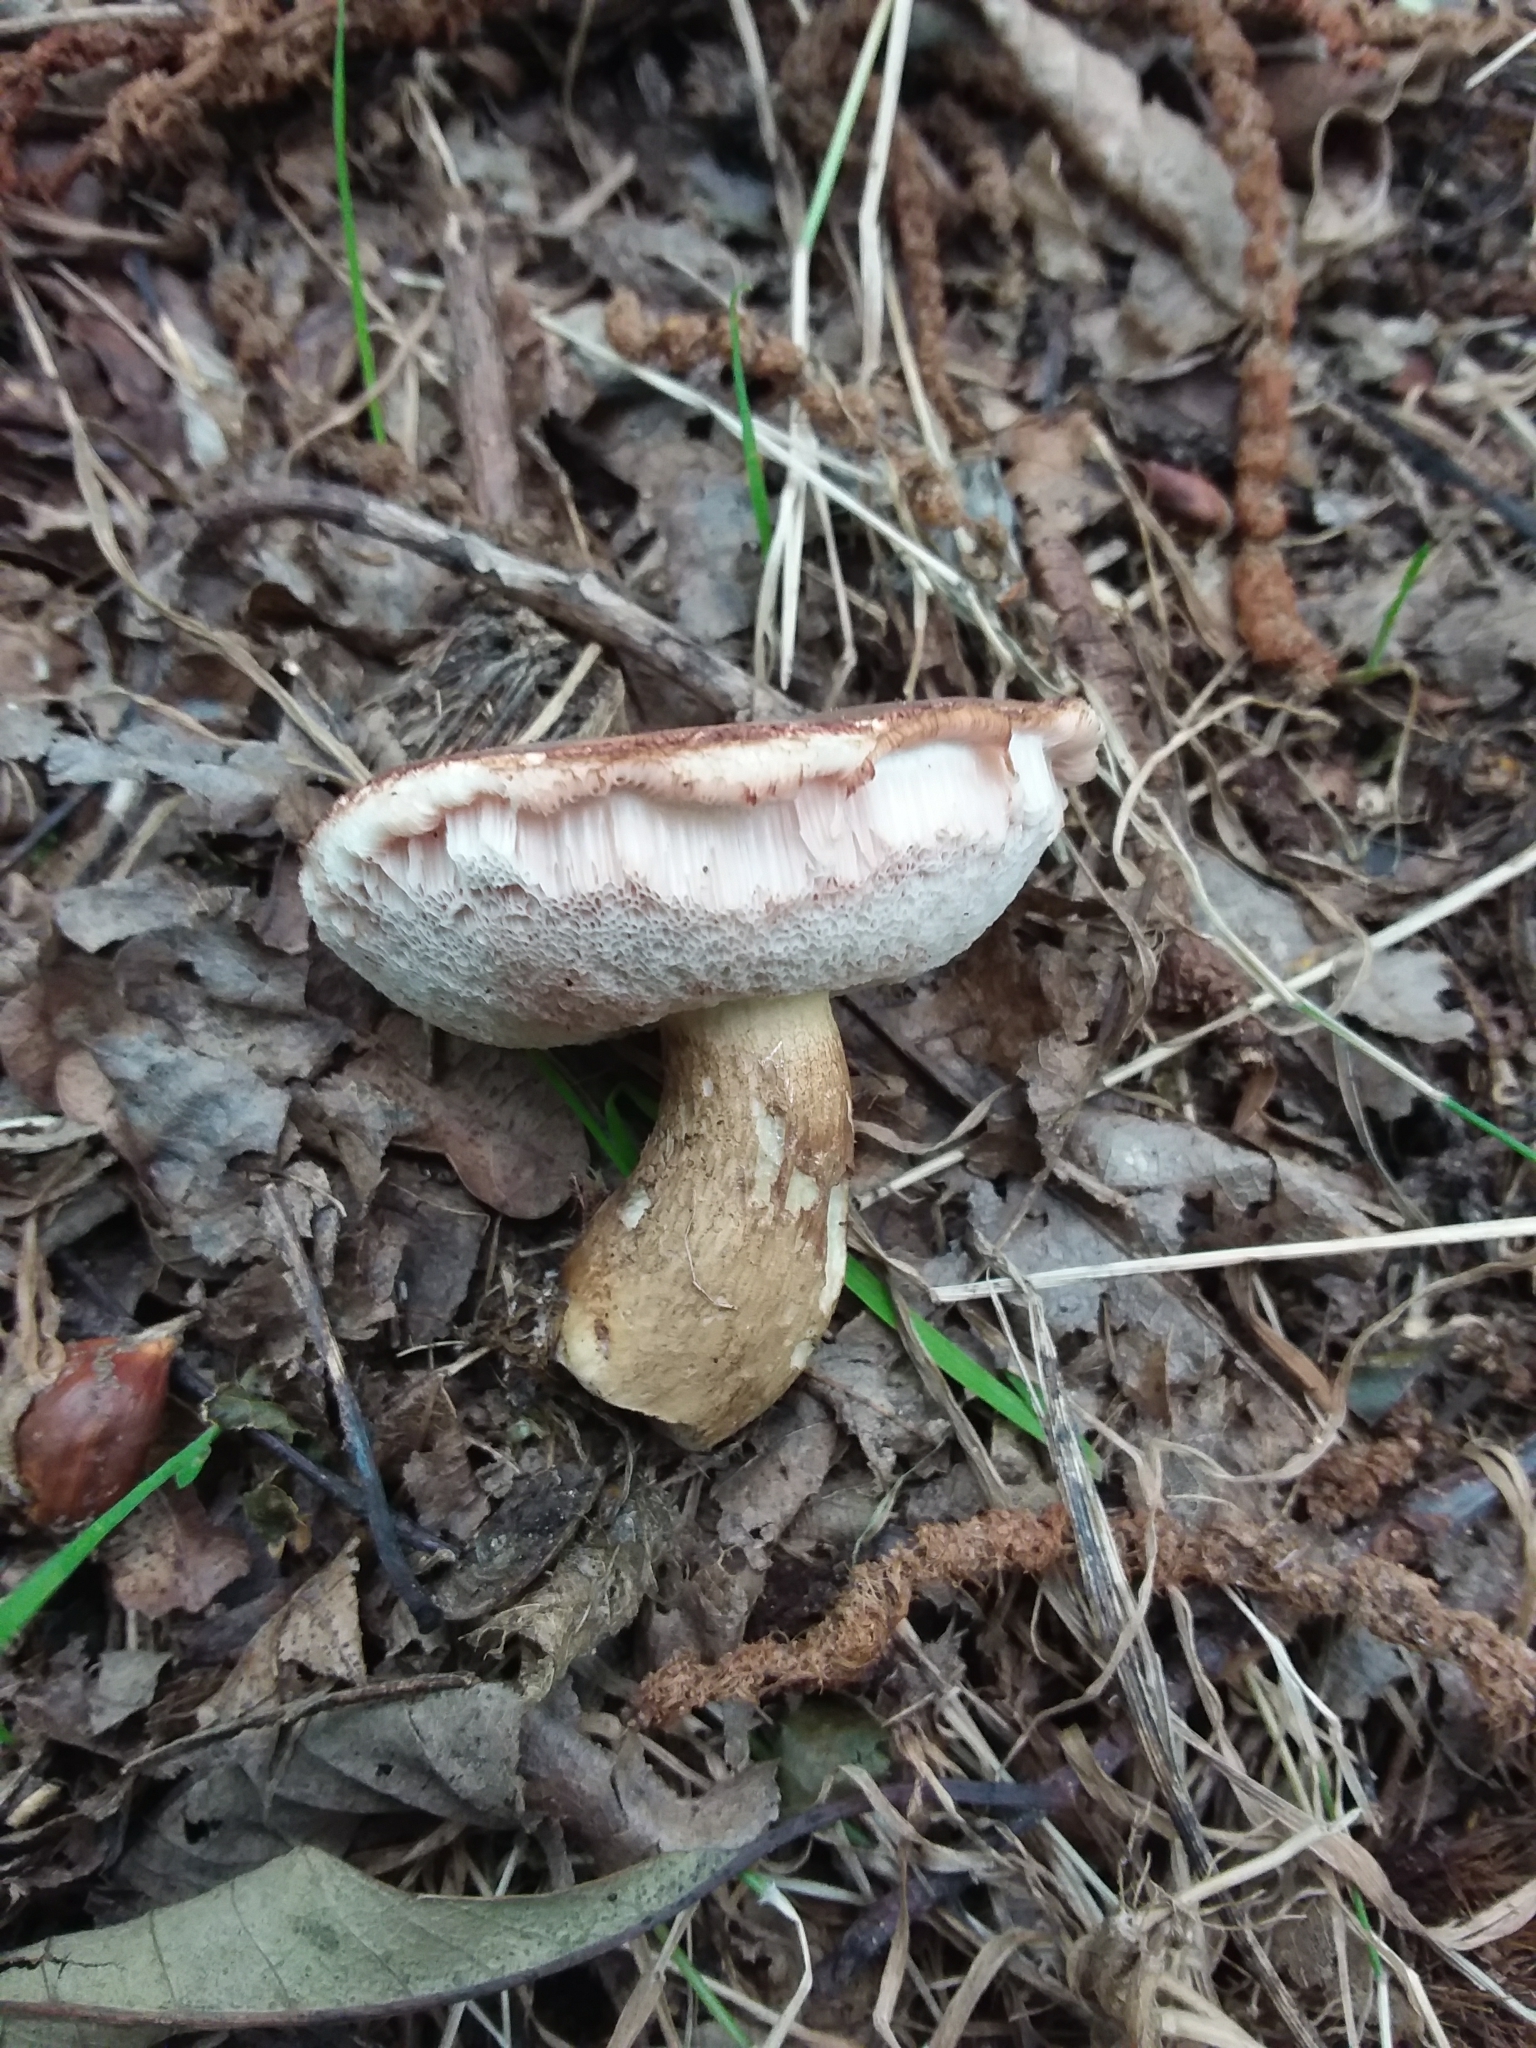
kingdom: Fungi
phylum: Basidiomycota
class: Agaricomycetes
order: Boletales
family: Boletaceae
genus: Tylopilus
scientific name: Tylopilus felleus
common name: Bitter bolete
